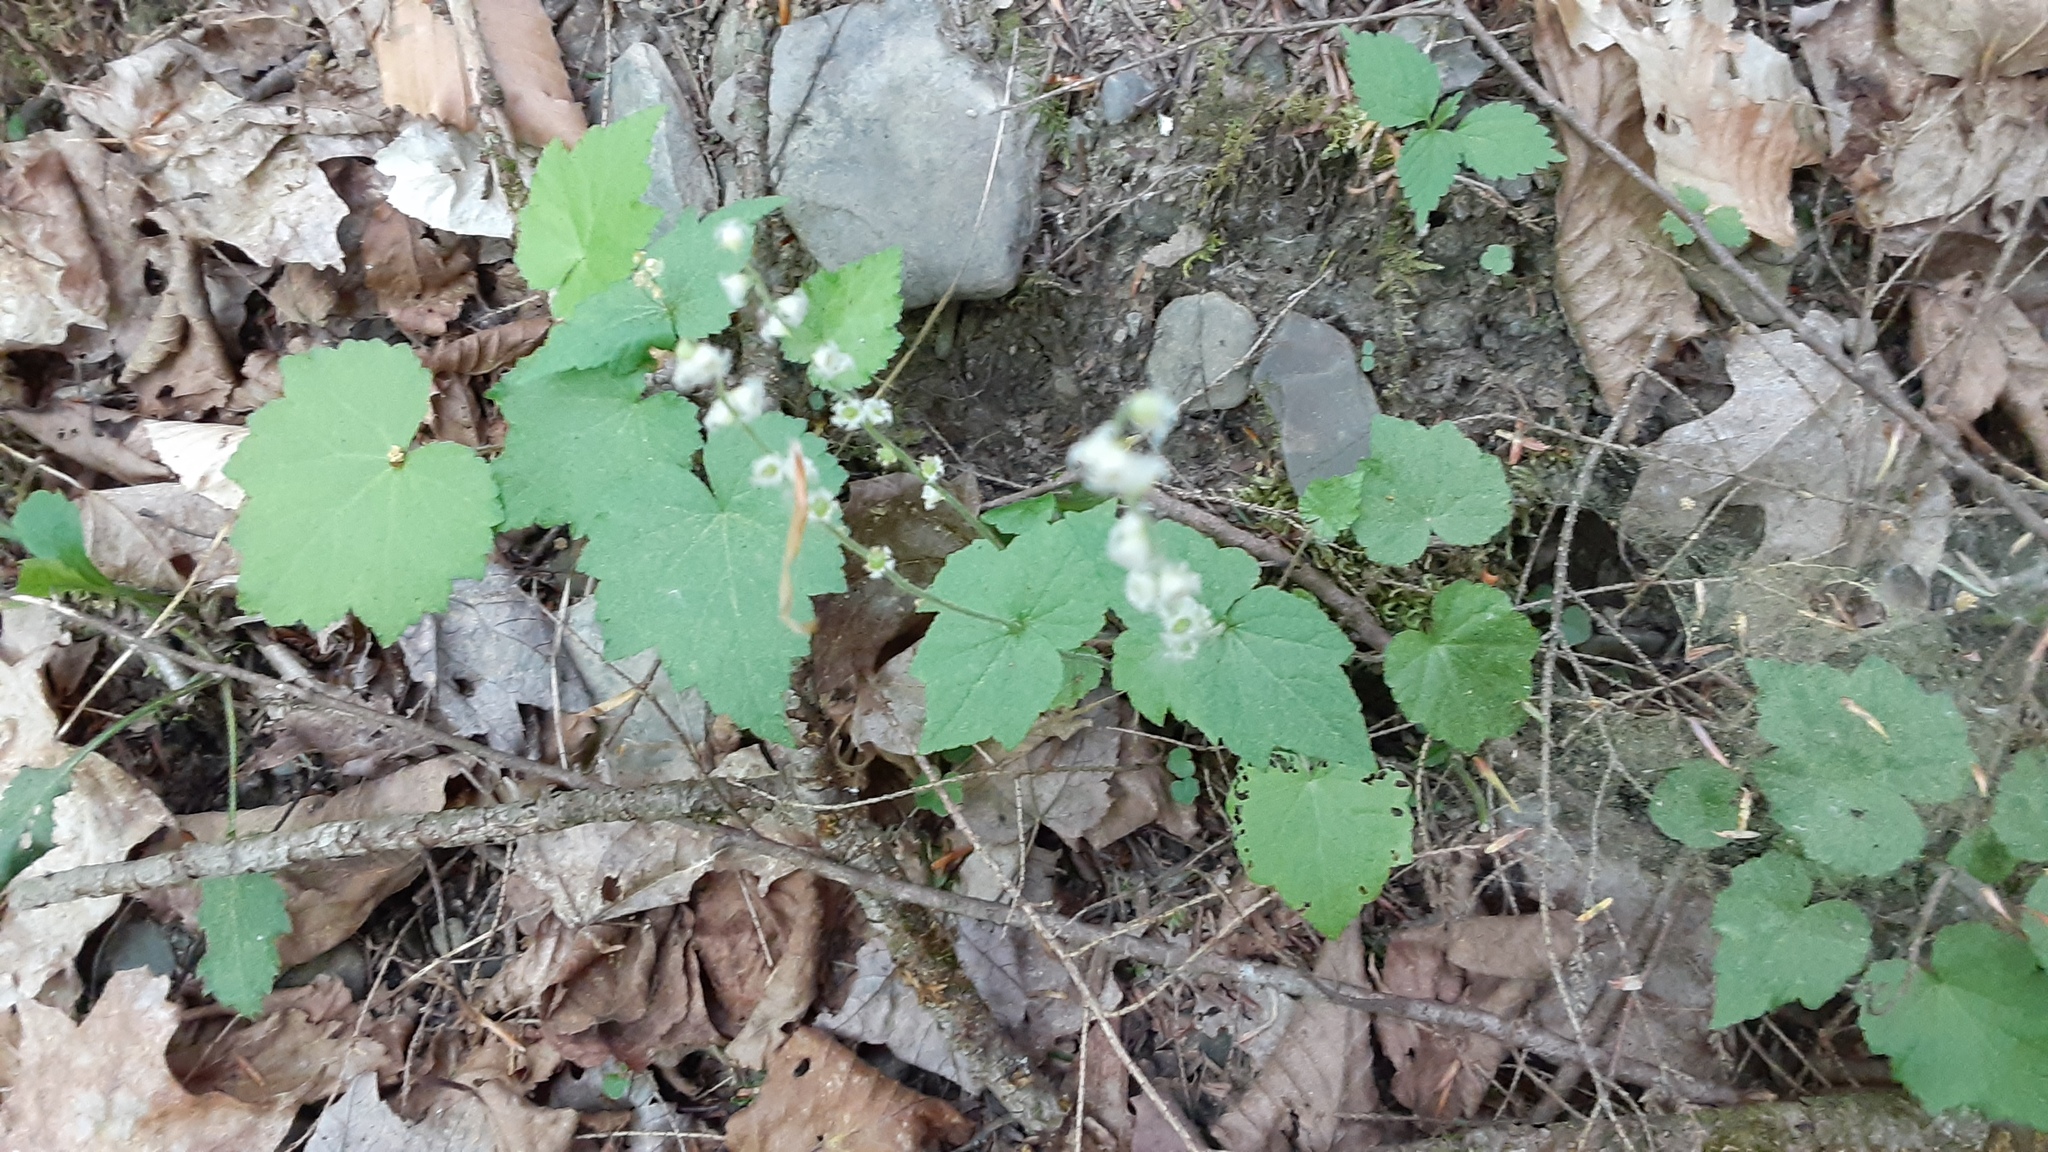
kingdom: Plantae
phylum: Tracheophyta
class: Magnoliopsida
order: Saxifragales
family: Saxifragaceae
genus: Mitella
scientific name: Mitella diphylla
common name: Coolwort
